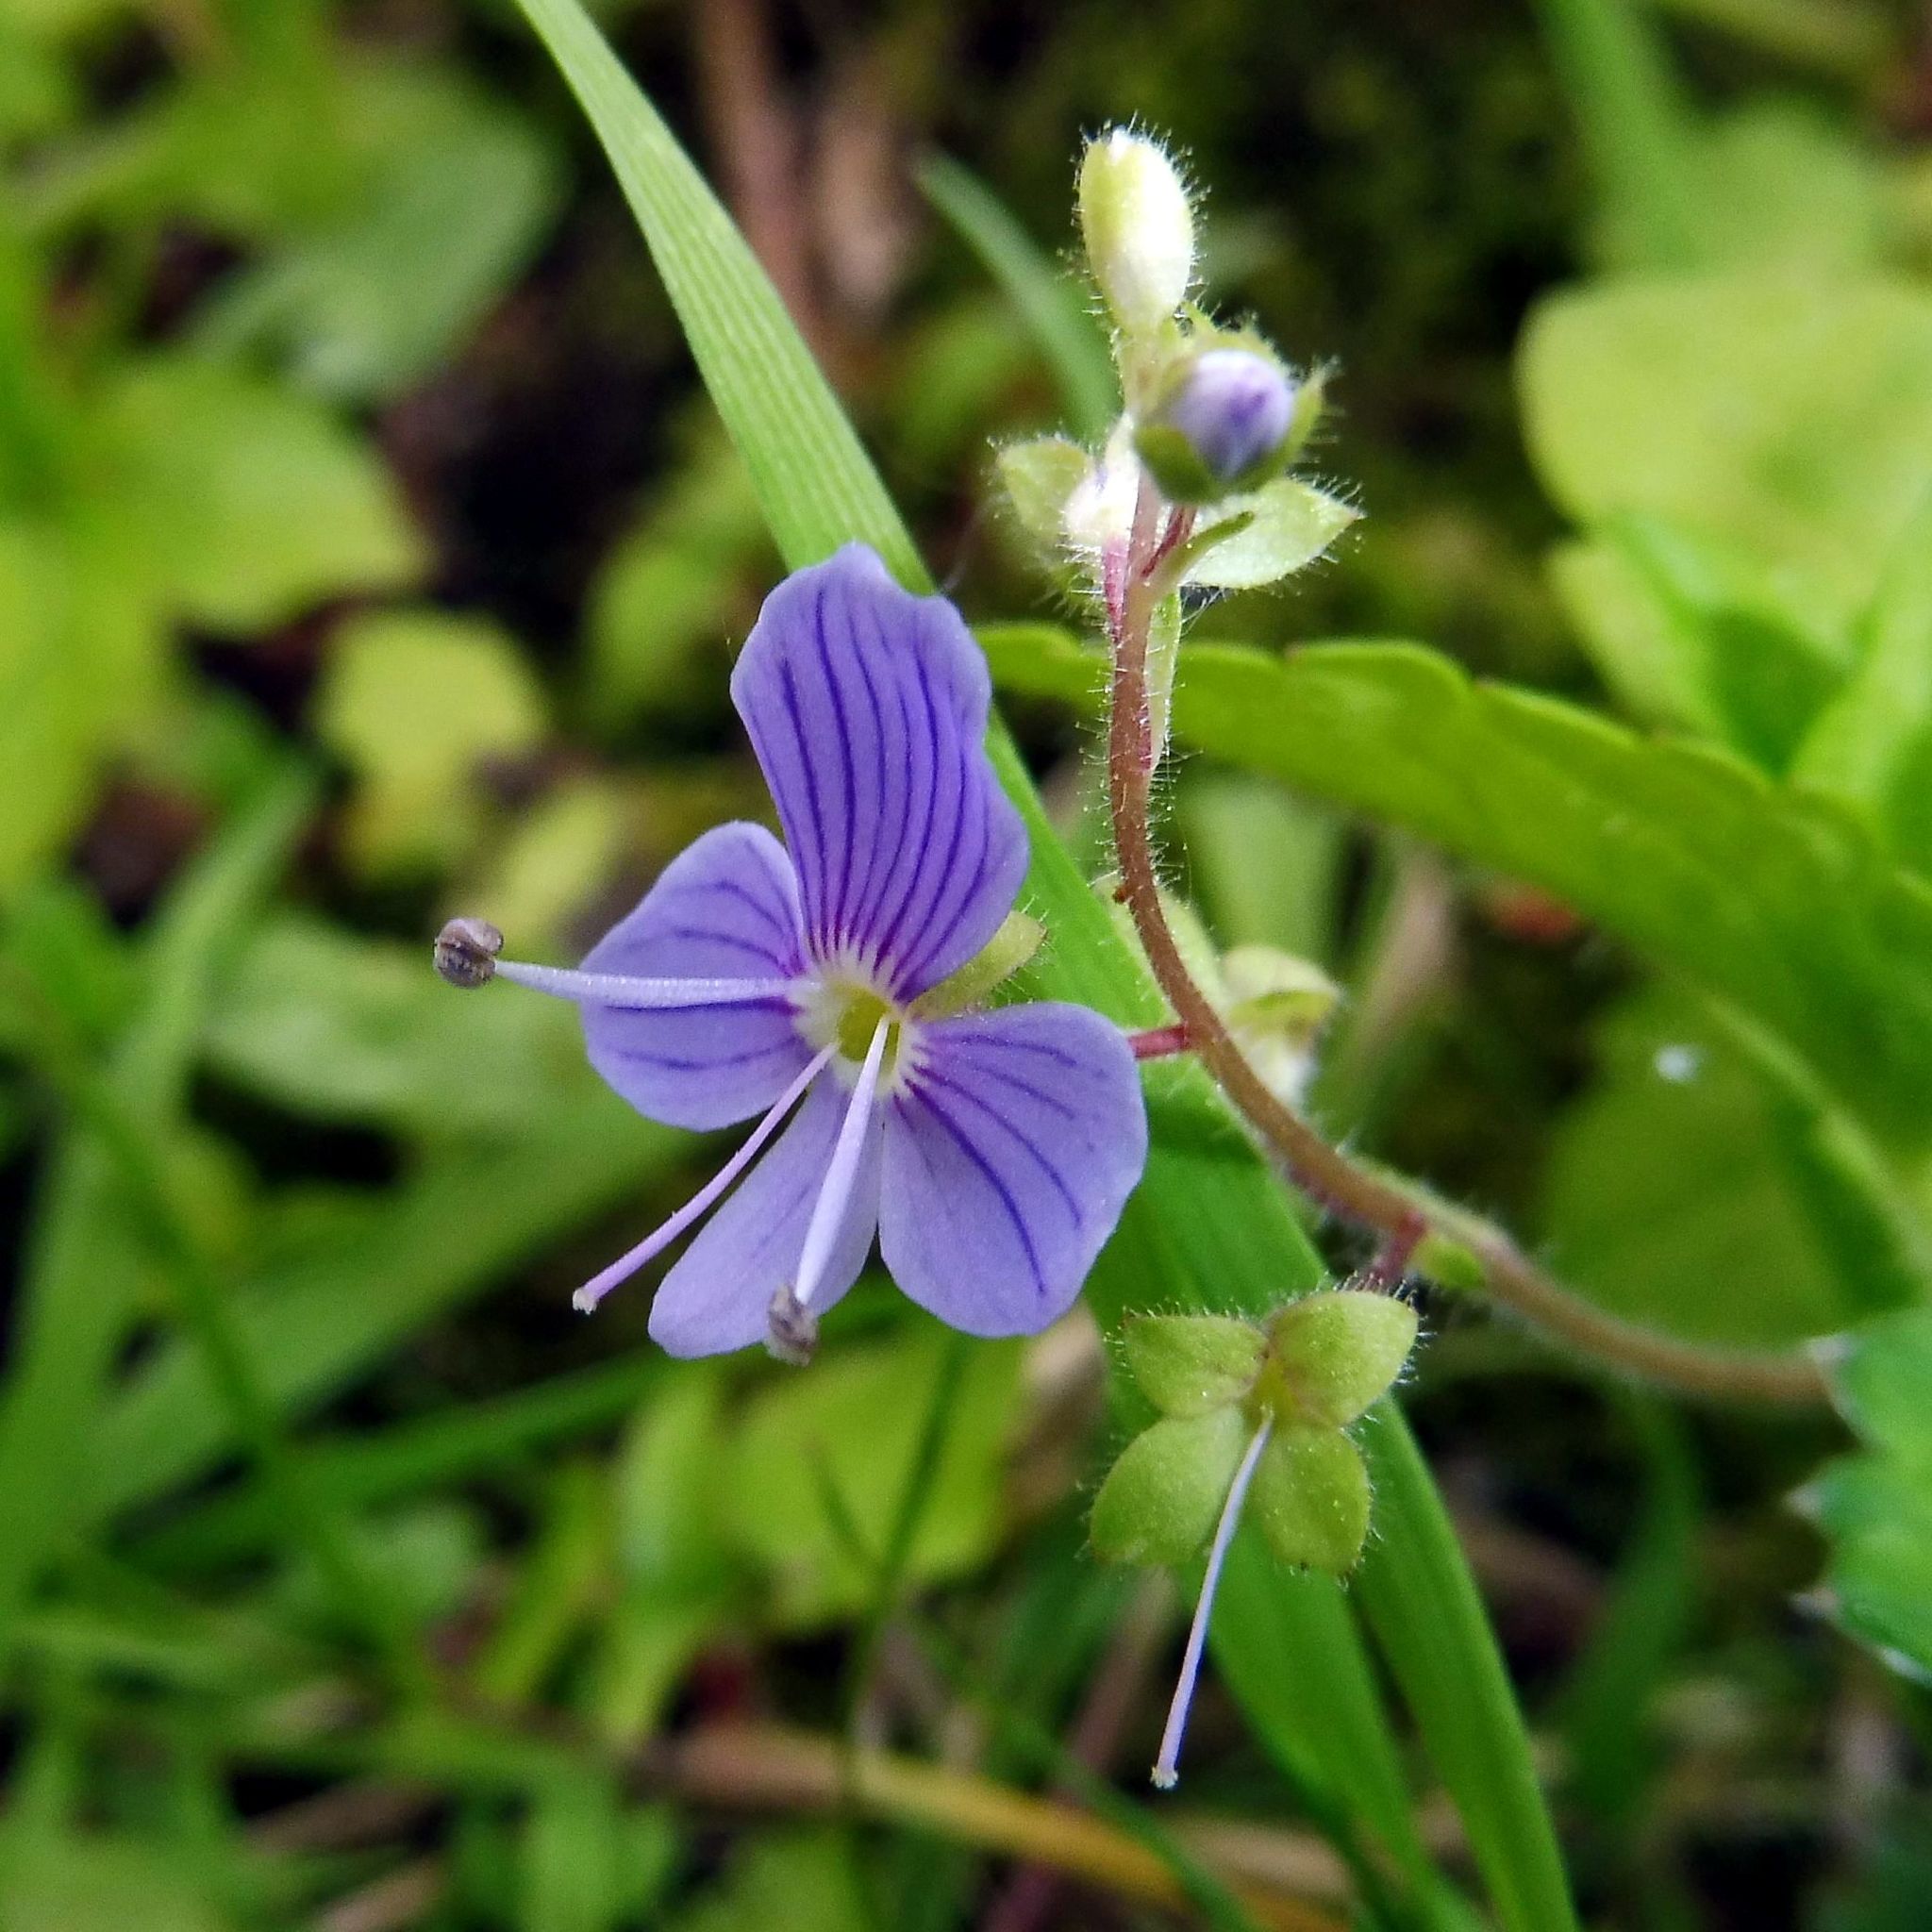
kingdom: Plantae
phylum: Tracheophyta
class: Magnoliopsida
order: Lamiales
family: Plantaginaceae
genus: Veronica
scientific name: Veronica montana
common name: Wood speedwell
